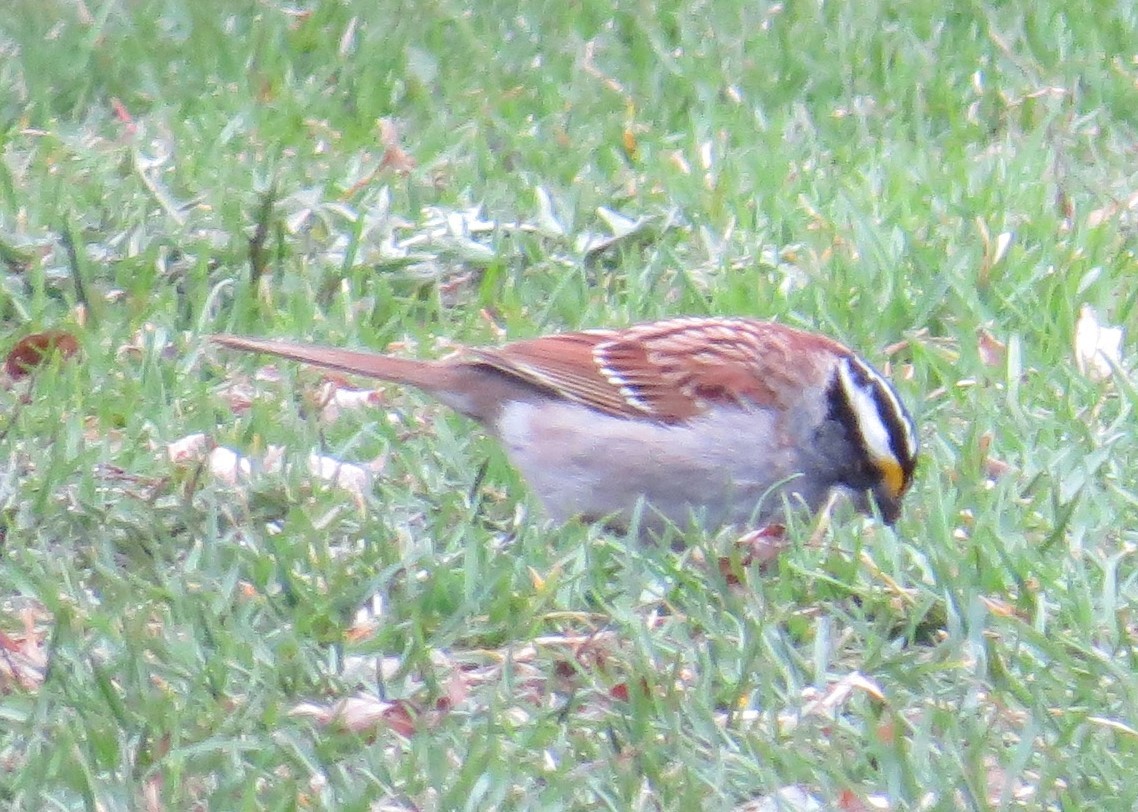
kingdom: Animalia
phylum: Chordata
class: Aves
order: Passeriformes
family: Passerellidae
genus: Zonotrichia
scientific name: Zonotrichia albicollis
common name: White-throated sparrow
